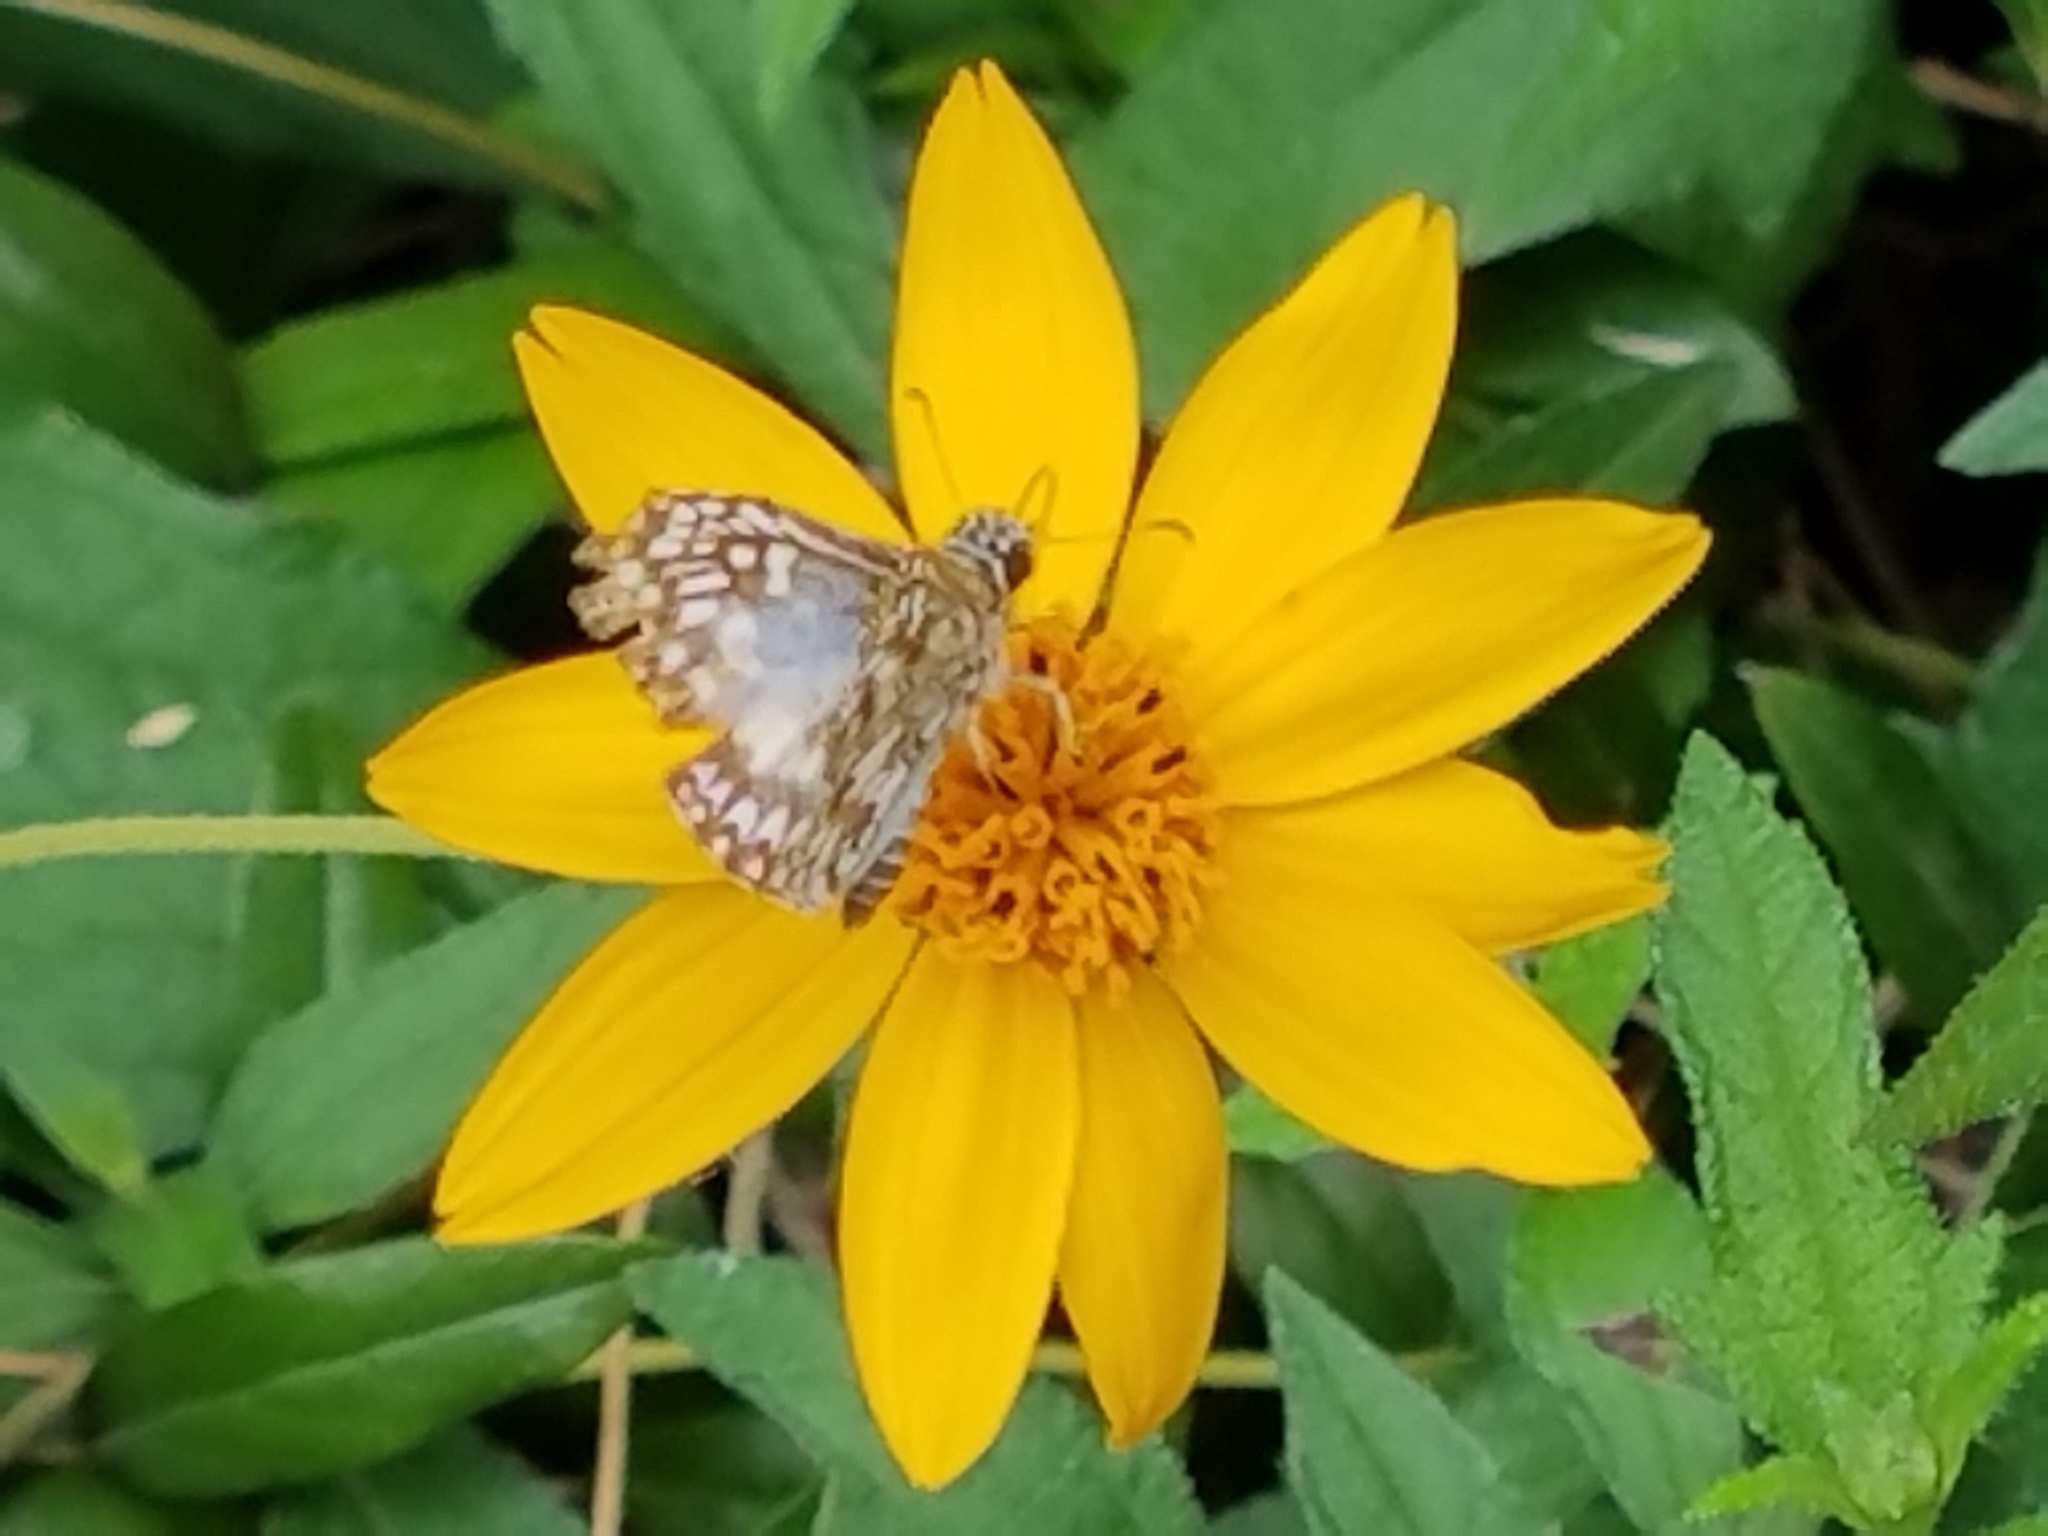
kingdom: Animalia
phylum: Arthropoda
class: Insecta
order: Lepidoptera
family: Hesperiidae
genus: Pyrgus
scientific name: Pyrgus oileus
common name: Tropical checkered-skipper
